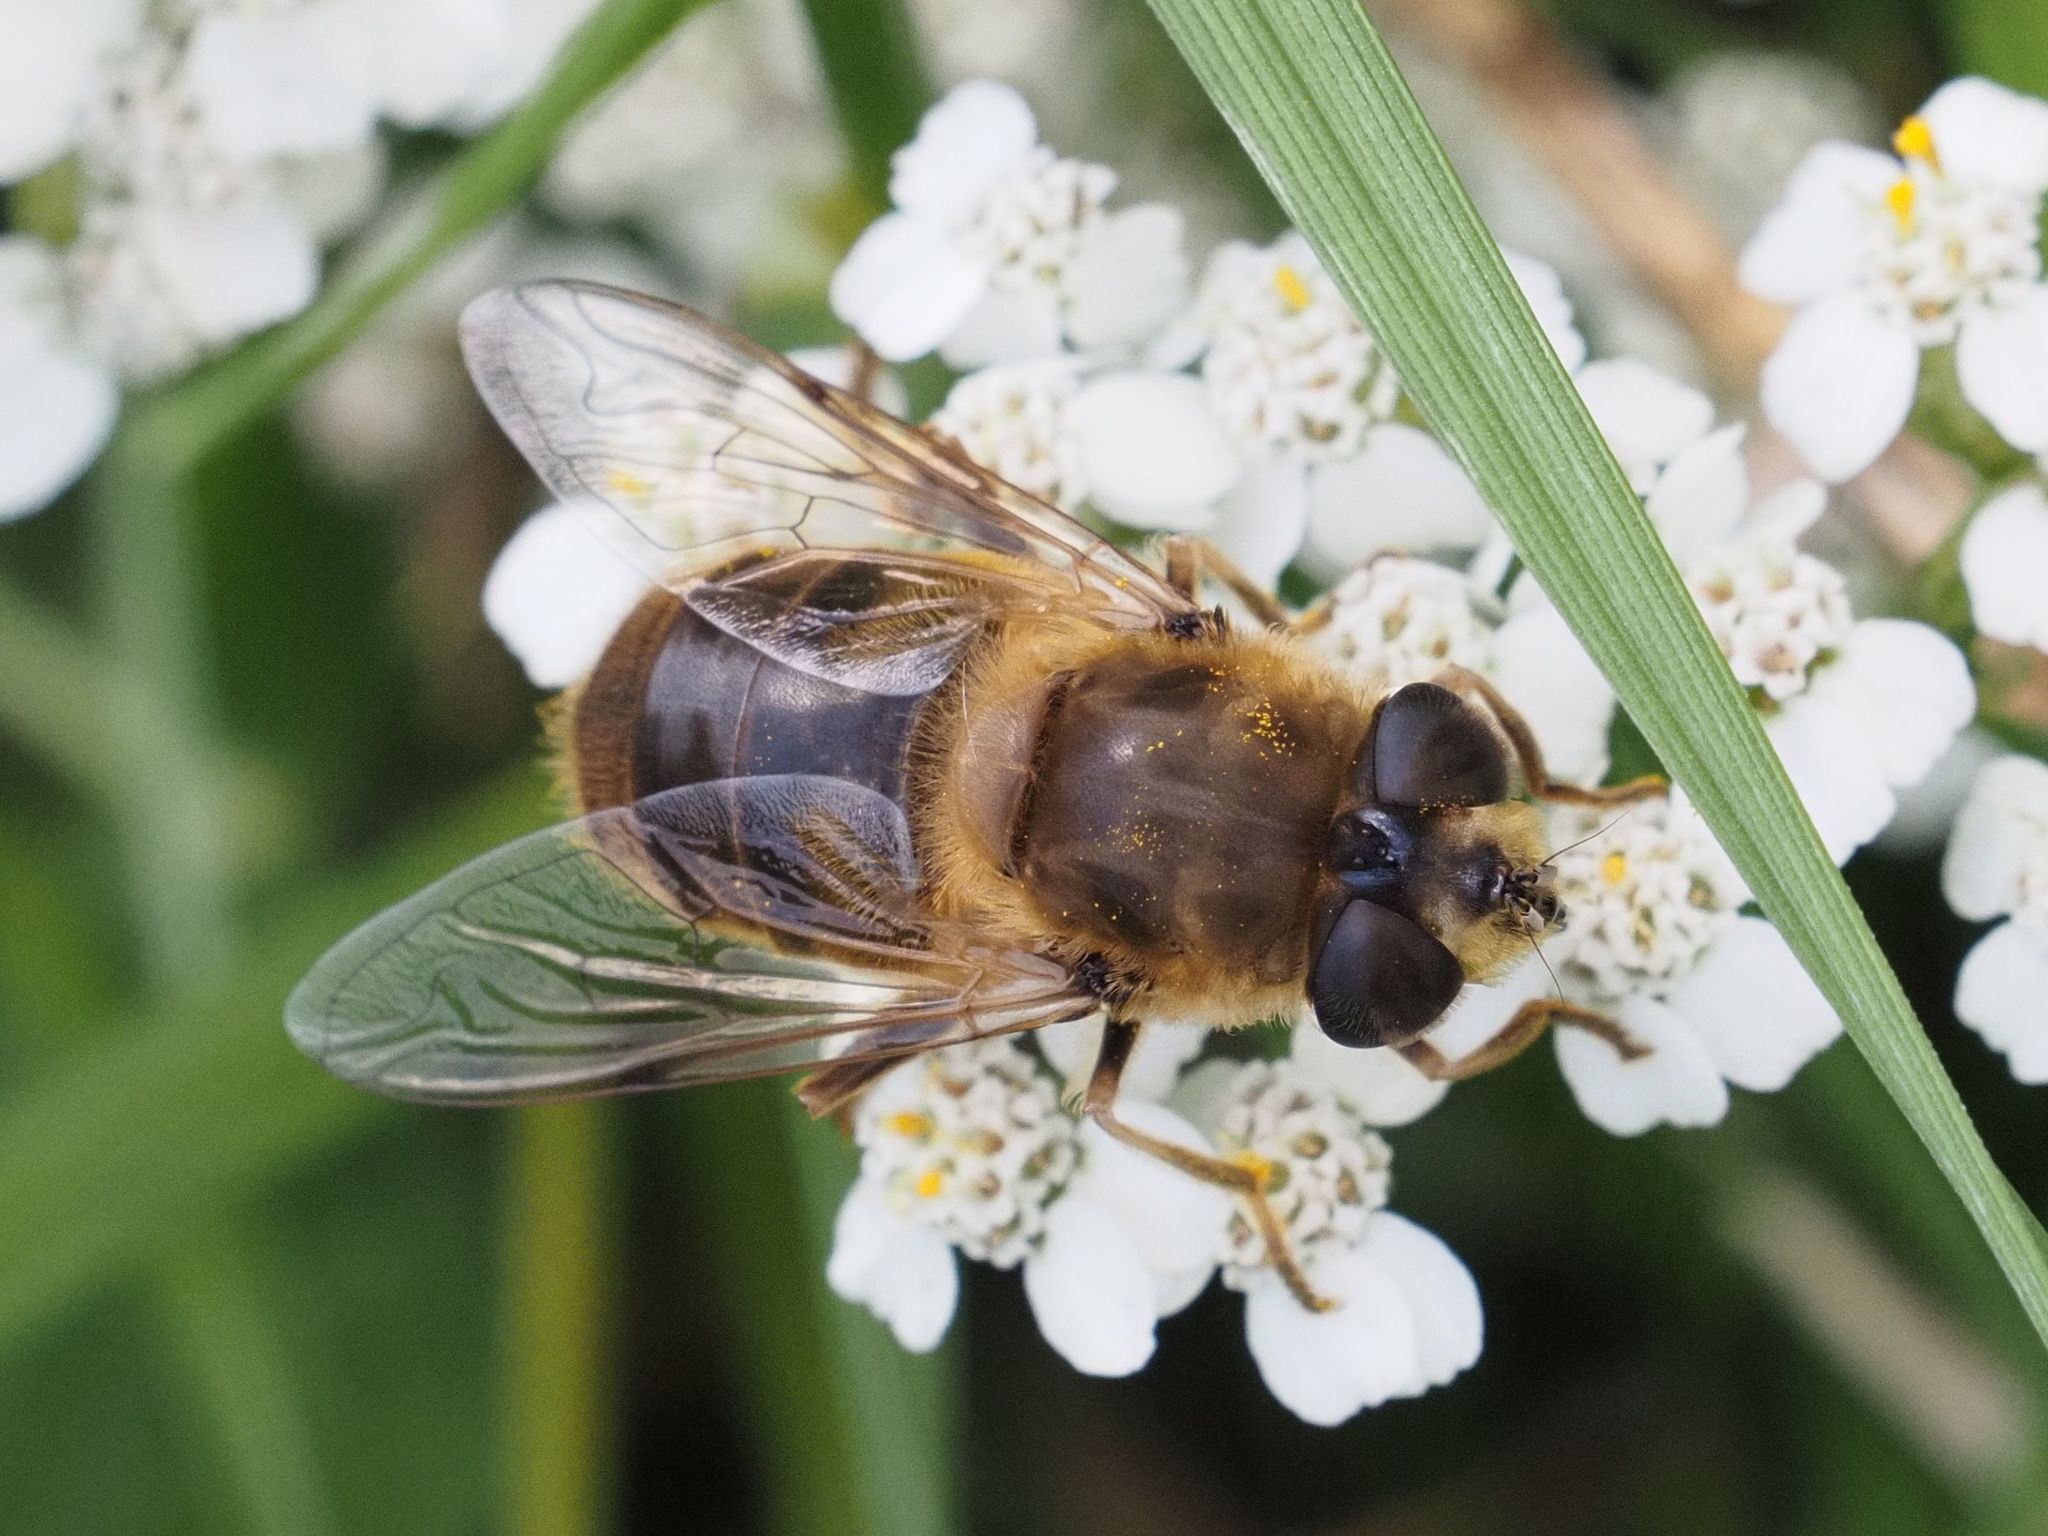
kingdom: Animalia
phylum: Arthropoda
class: Insecta
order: Diptera
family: Syrphidae
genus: Eristalis
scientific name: Eristalis tenax
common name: Drone fly
